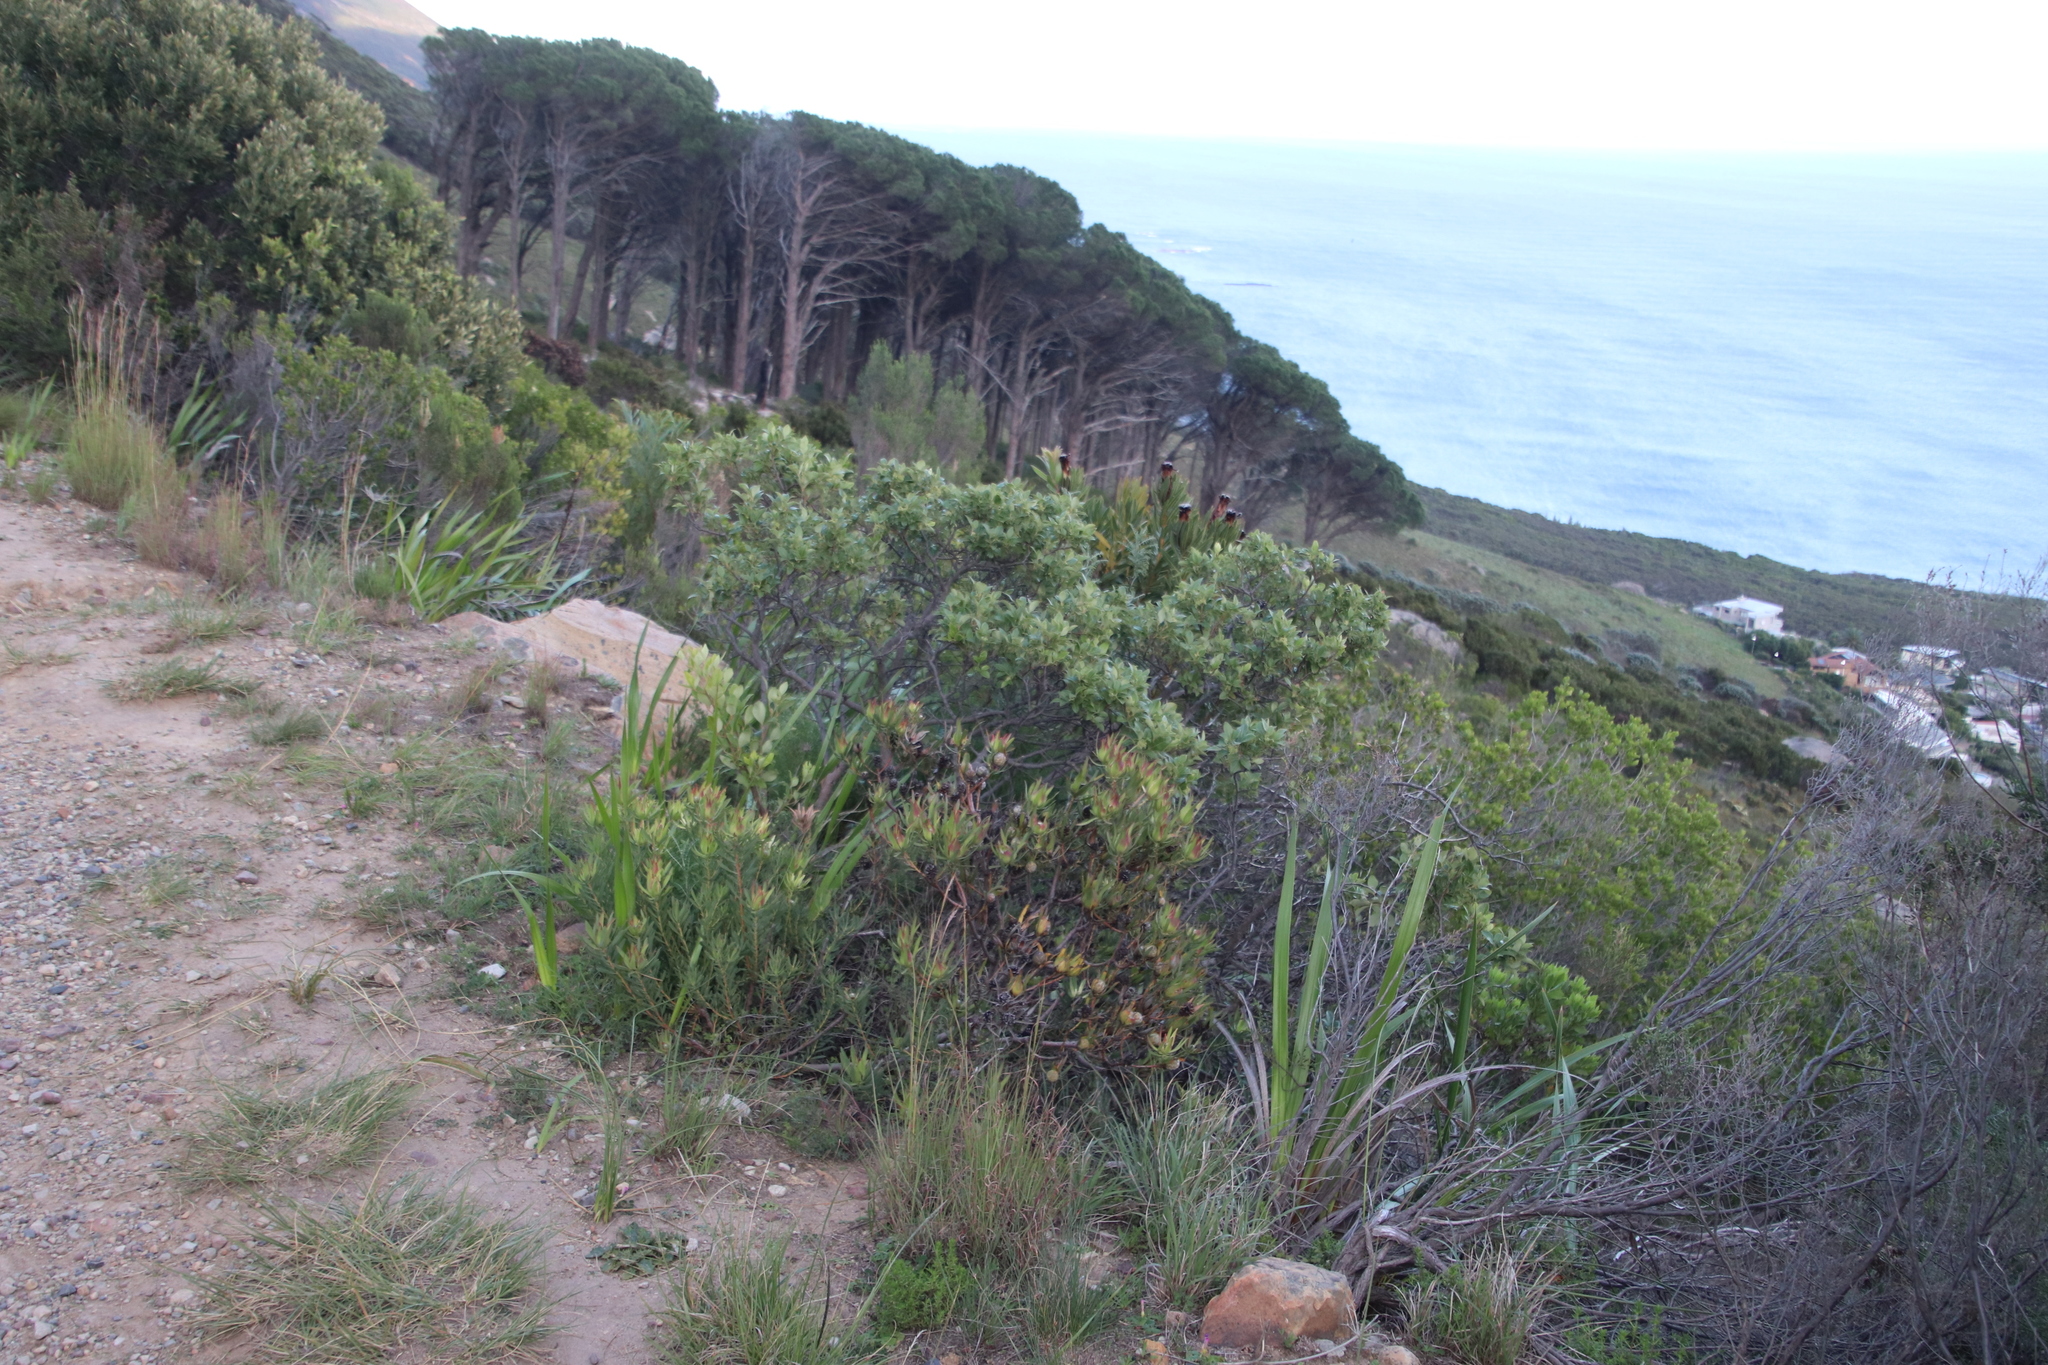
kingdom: Plantae
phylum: Tracheophyta
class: Magnoliopsida
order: Proteales
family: Proteaceae
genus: Leucadendron
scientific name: Leucadendron salignum
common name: Common sunshine conebush
